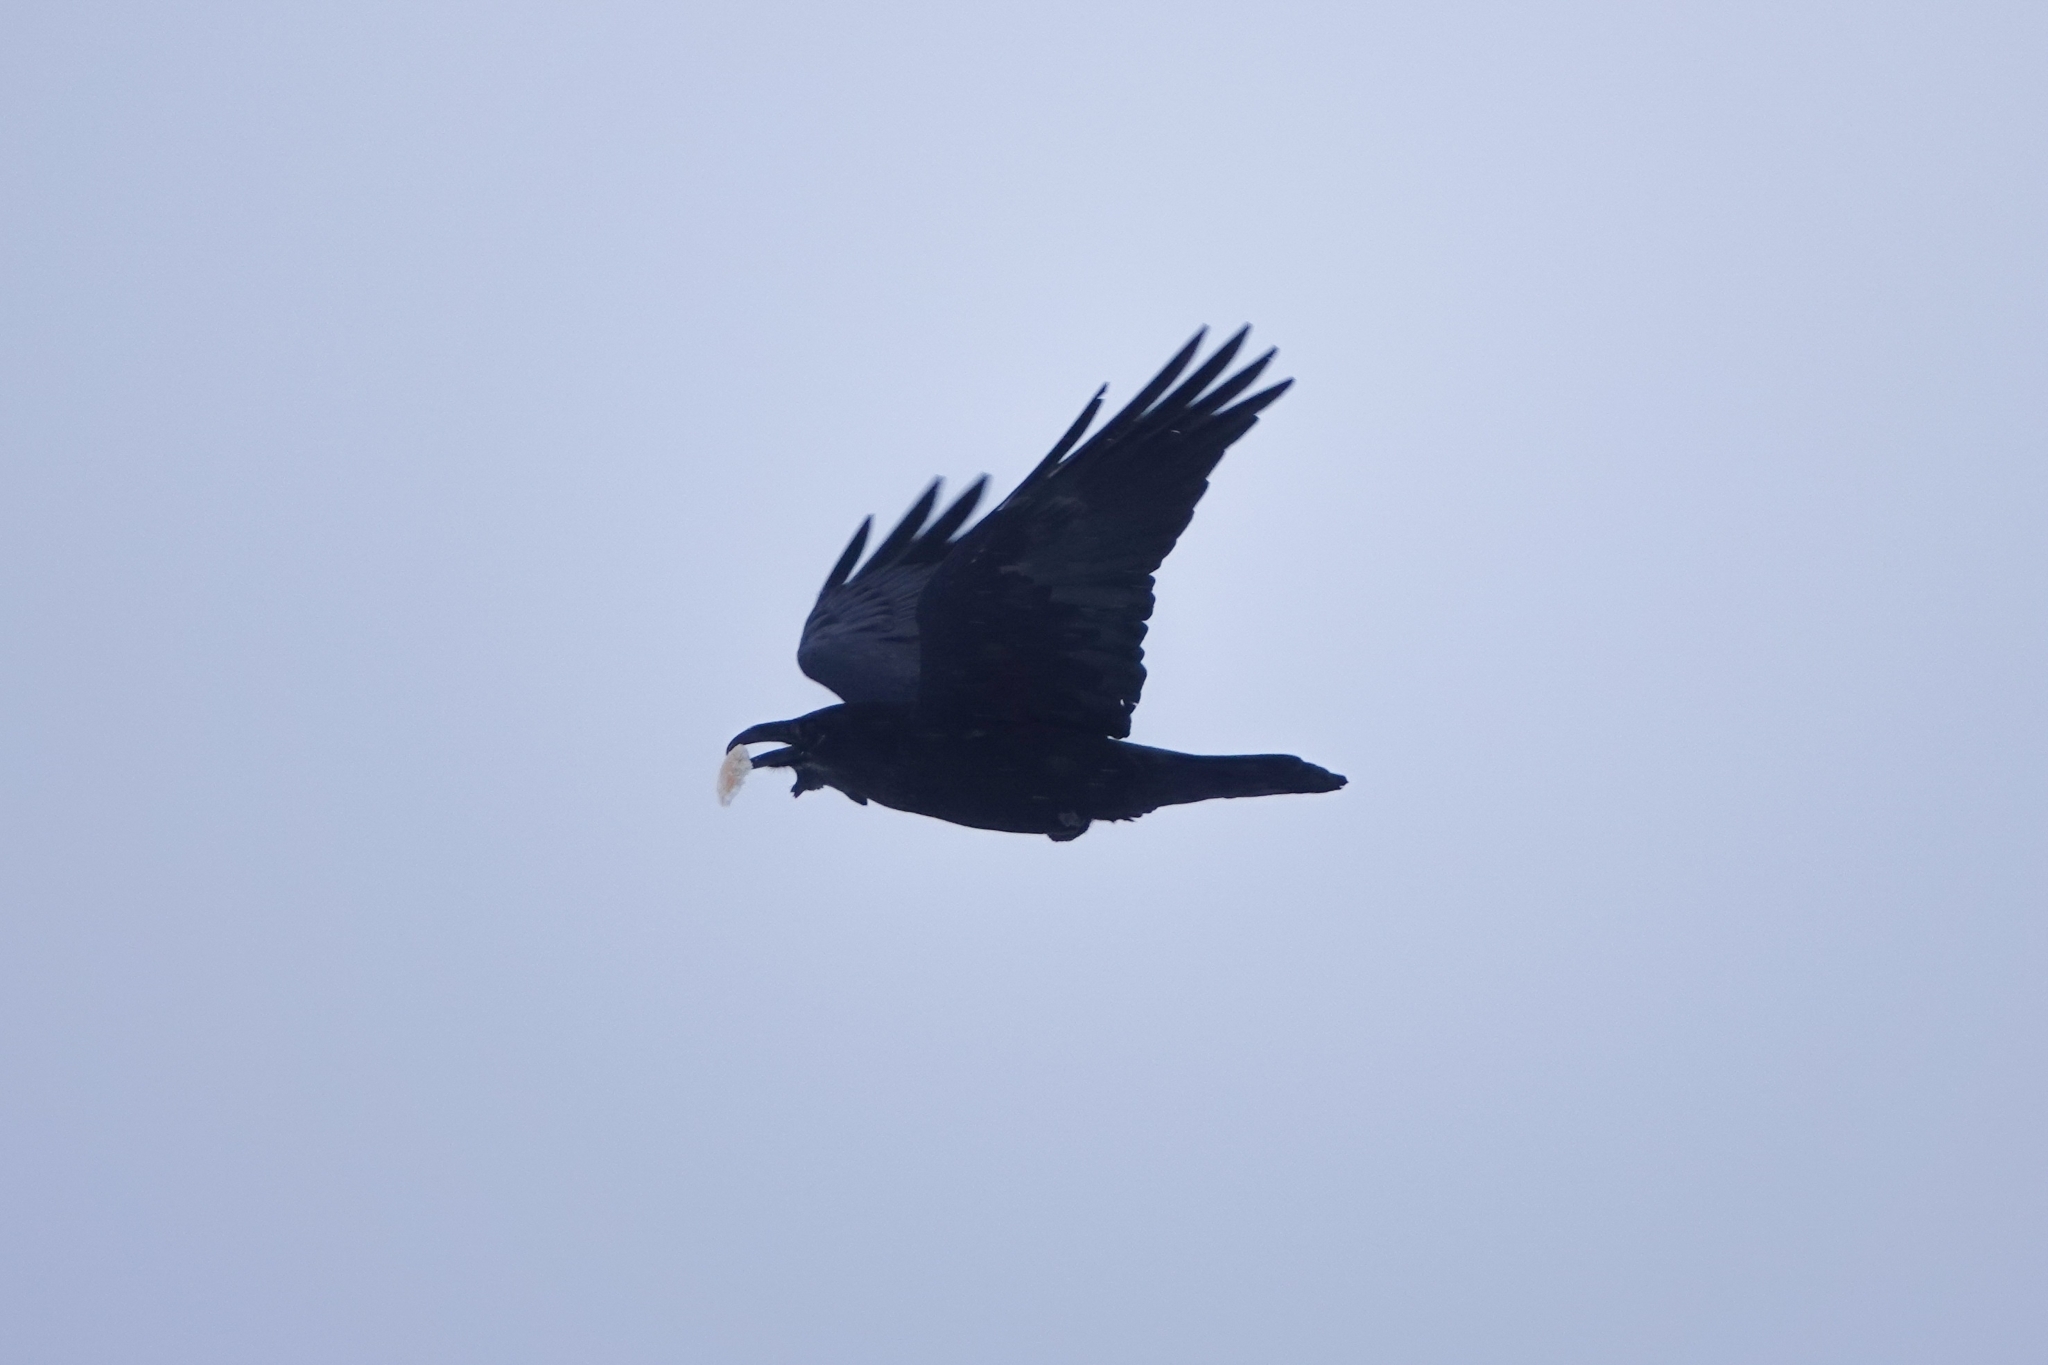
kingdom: Animalia
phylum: Chordata
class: Aves
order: Passeriformes
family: Corvidae
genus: Corvus
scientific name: Corvus corax
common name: Common raven
